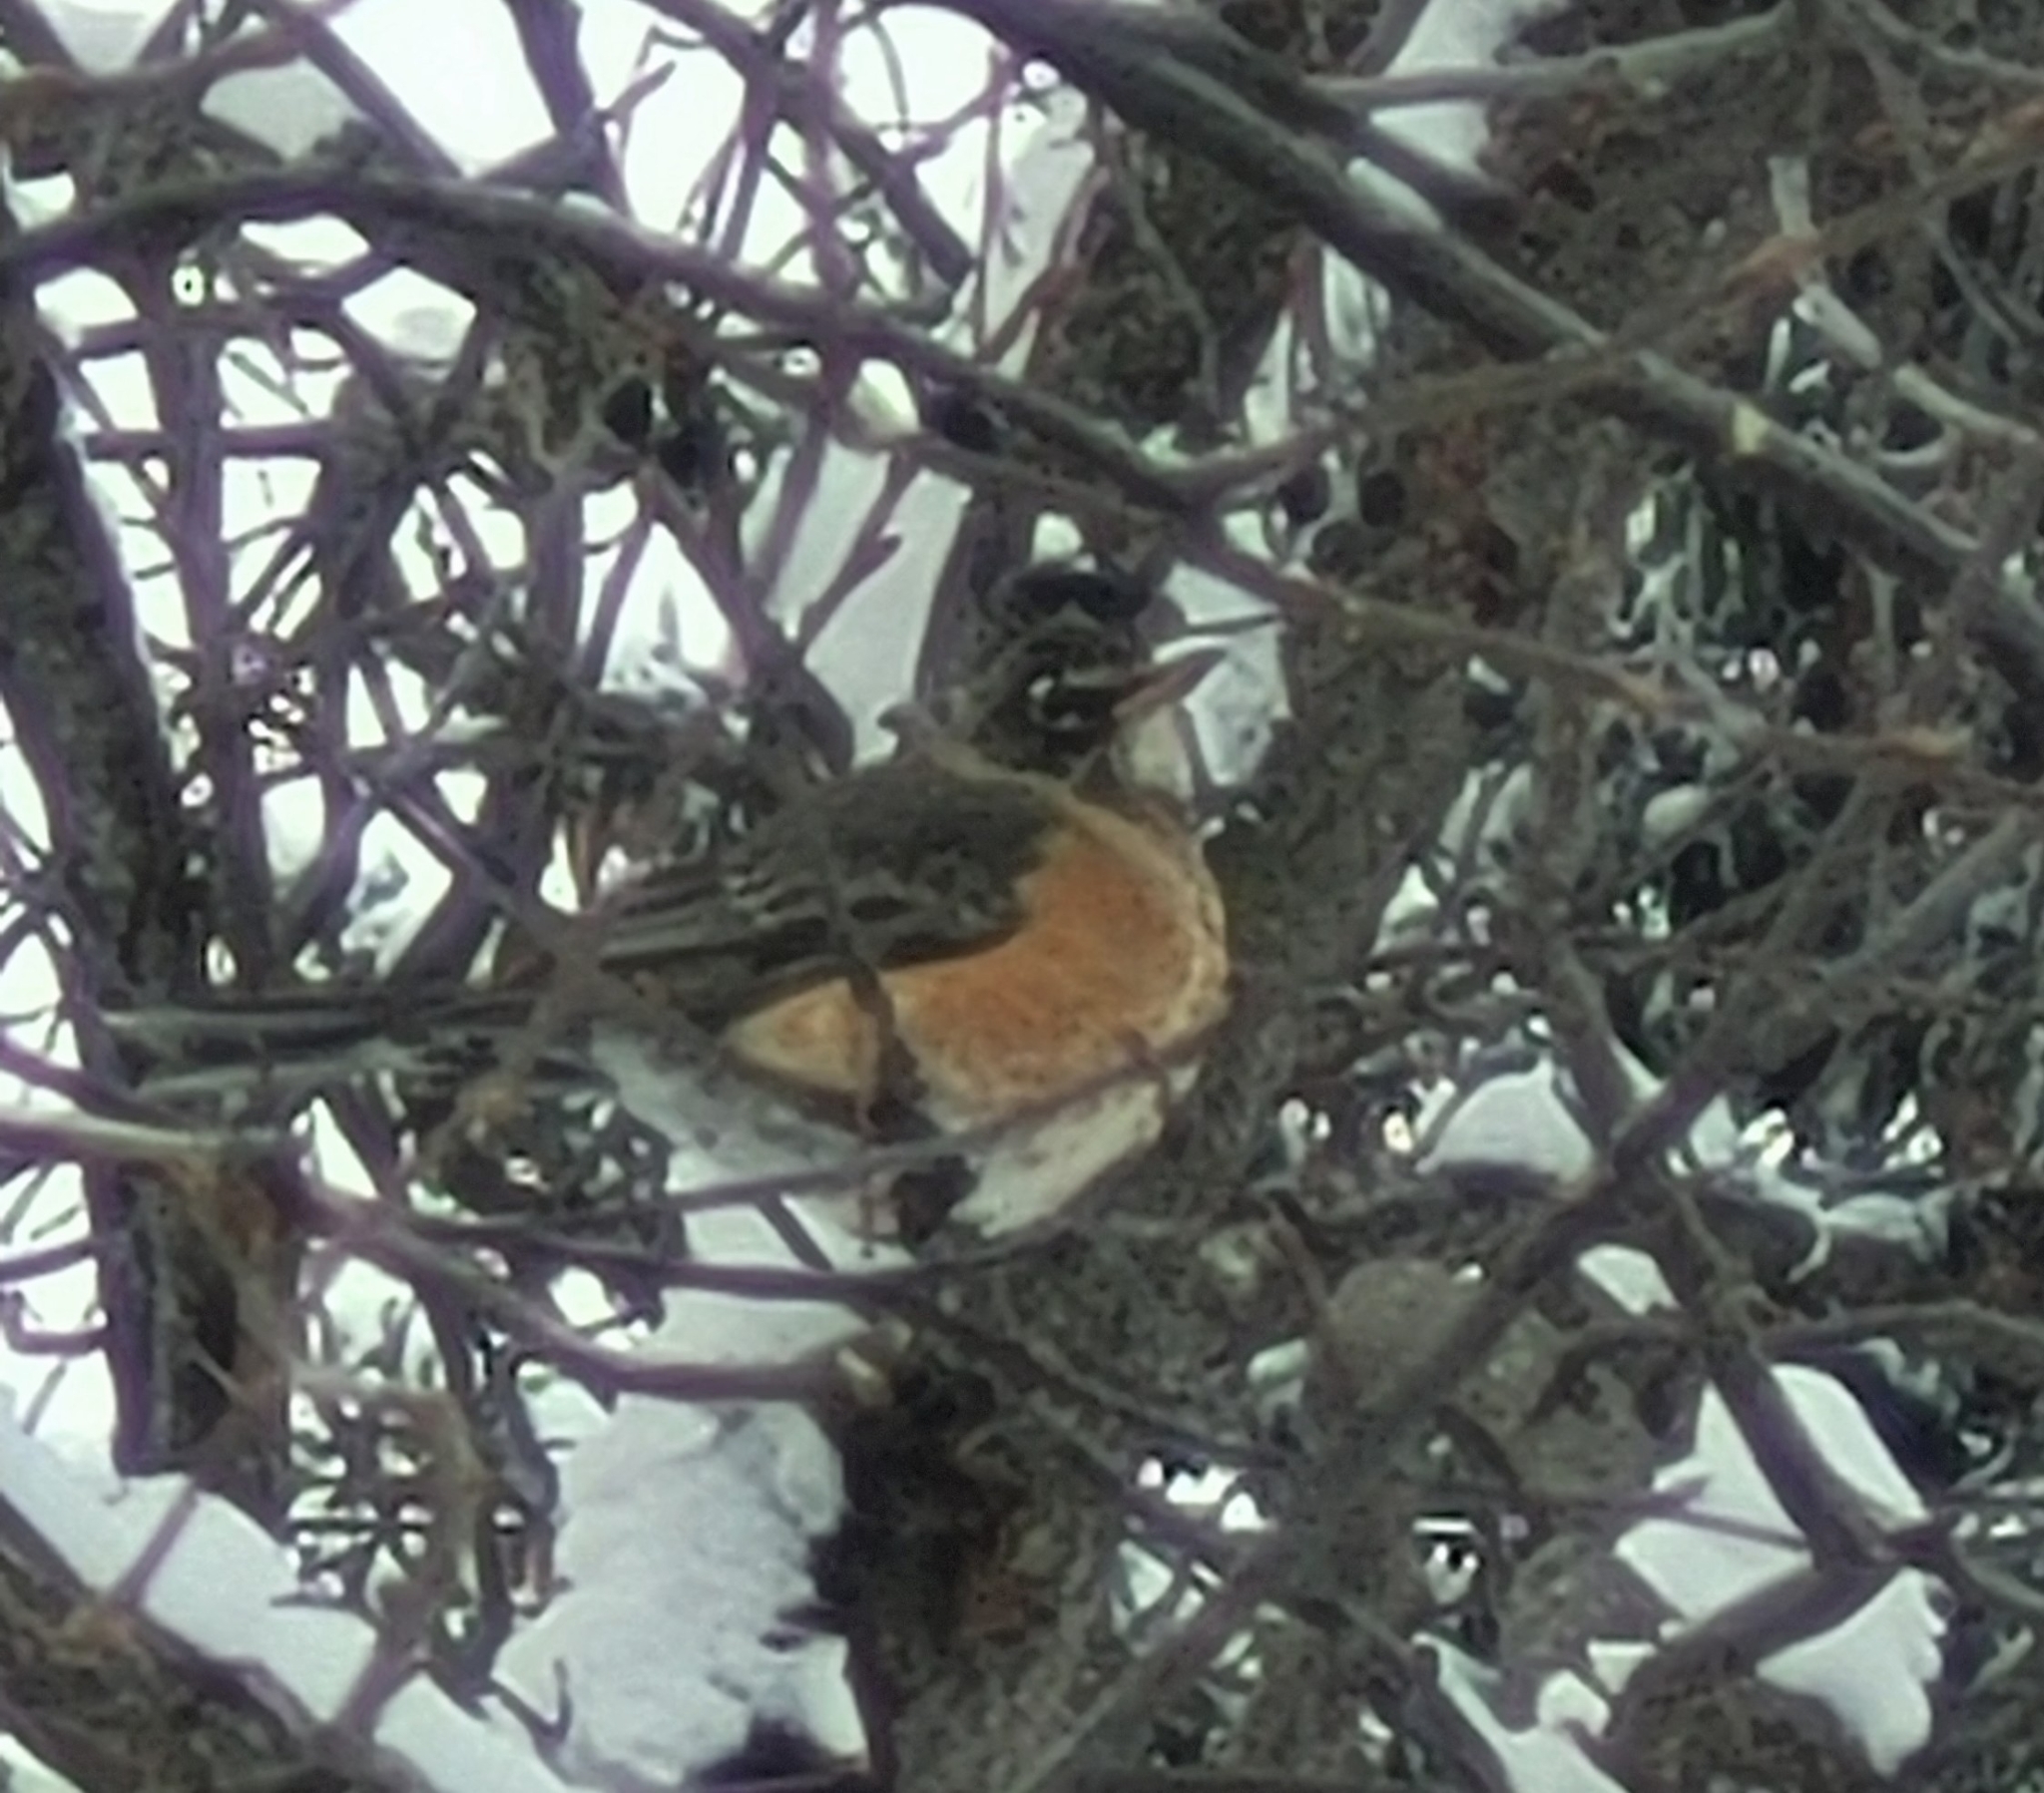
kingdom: Animalia
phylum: Chordata
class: Aves
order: Passeriformes
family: Turdidae
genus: Turdus
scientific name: Turdus migratorius
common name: American robin
